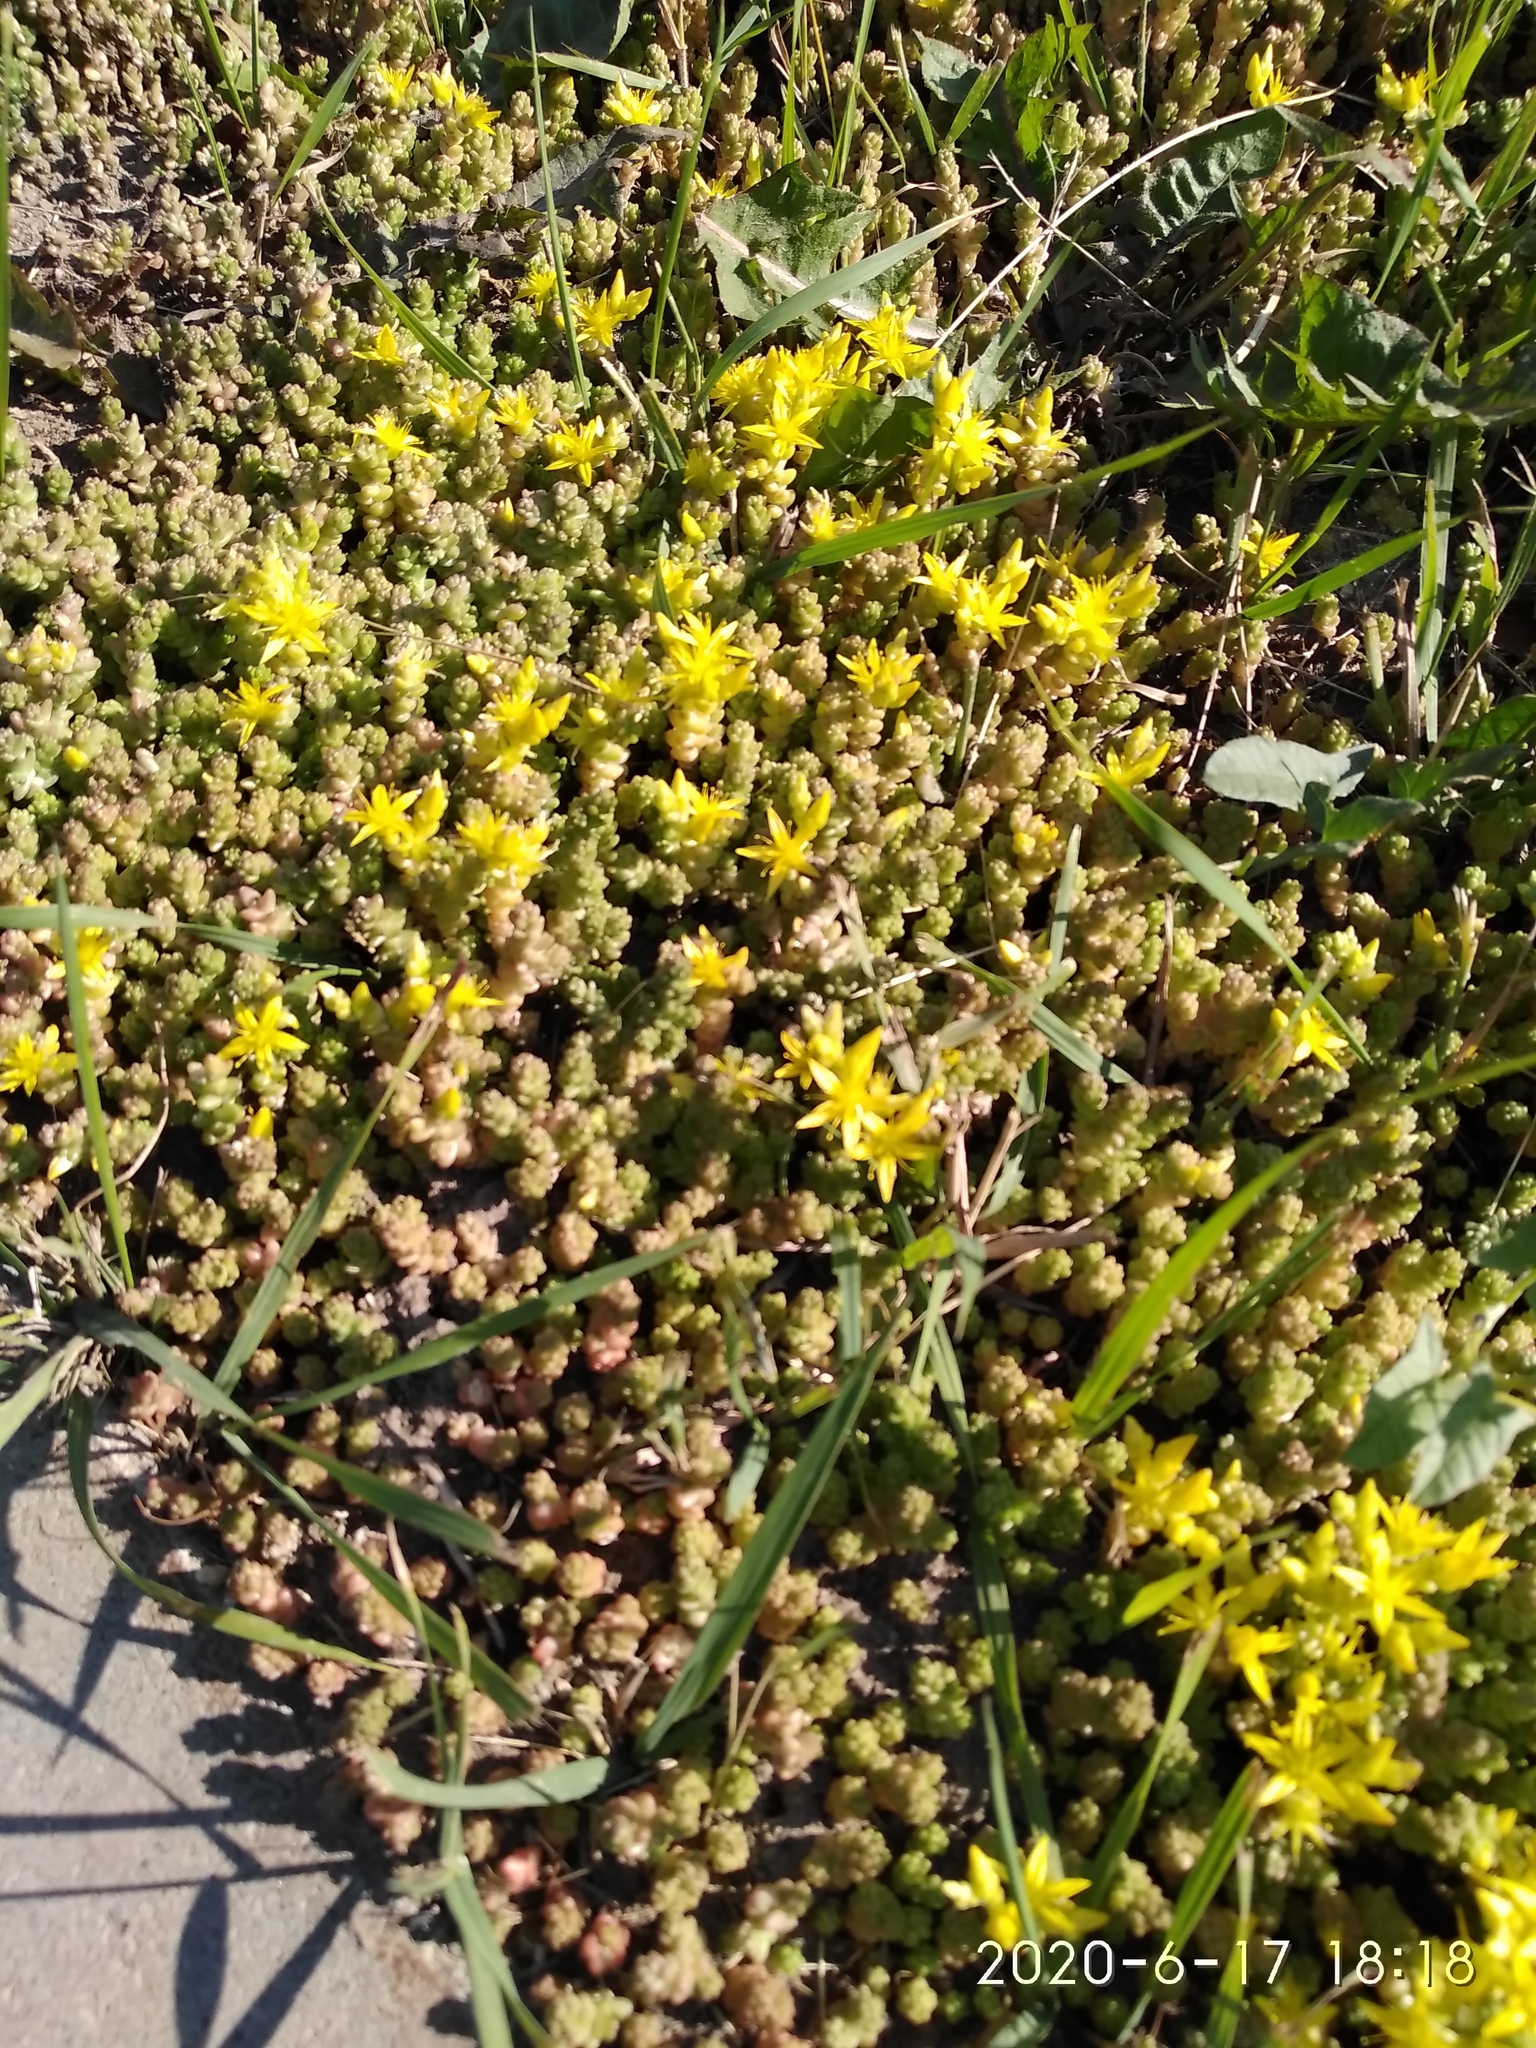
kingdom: Plantae
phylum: Tracheophyta
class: Magnoliopsida
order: Saxifragales
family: Crassulaceae
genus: Sedum
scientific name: Sedum acre
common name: Biting stonecrop
